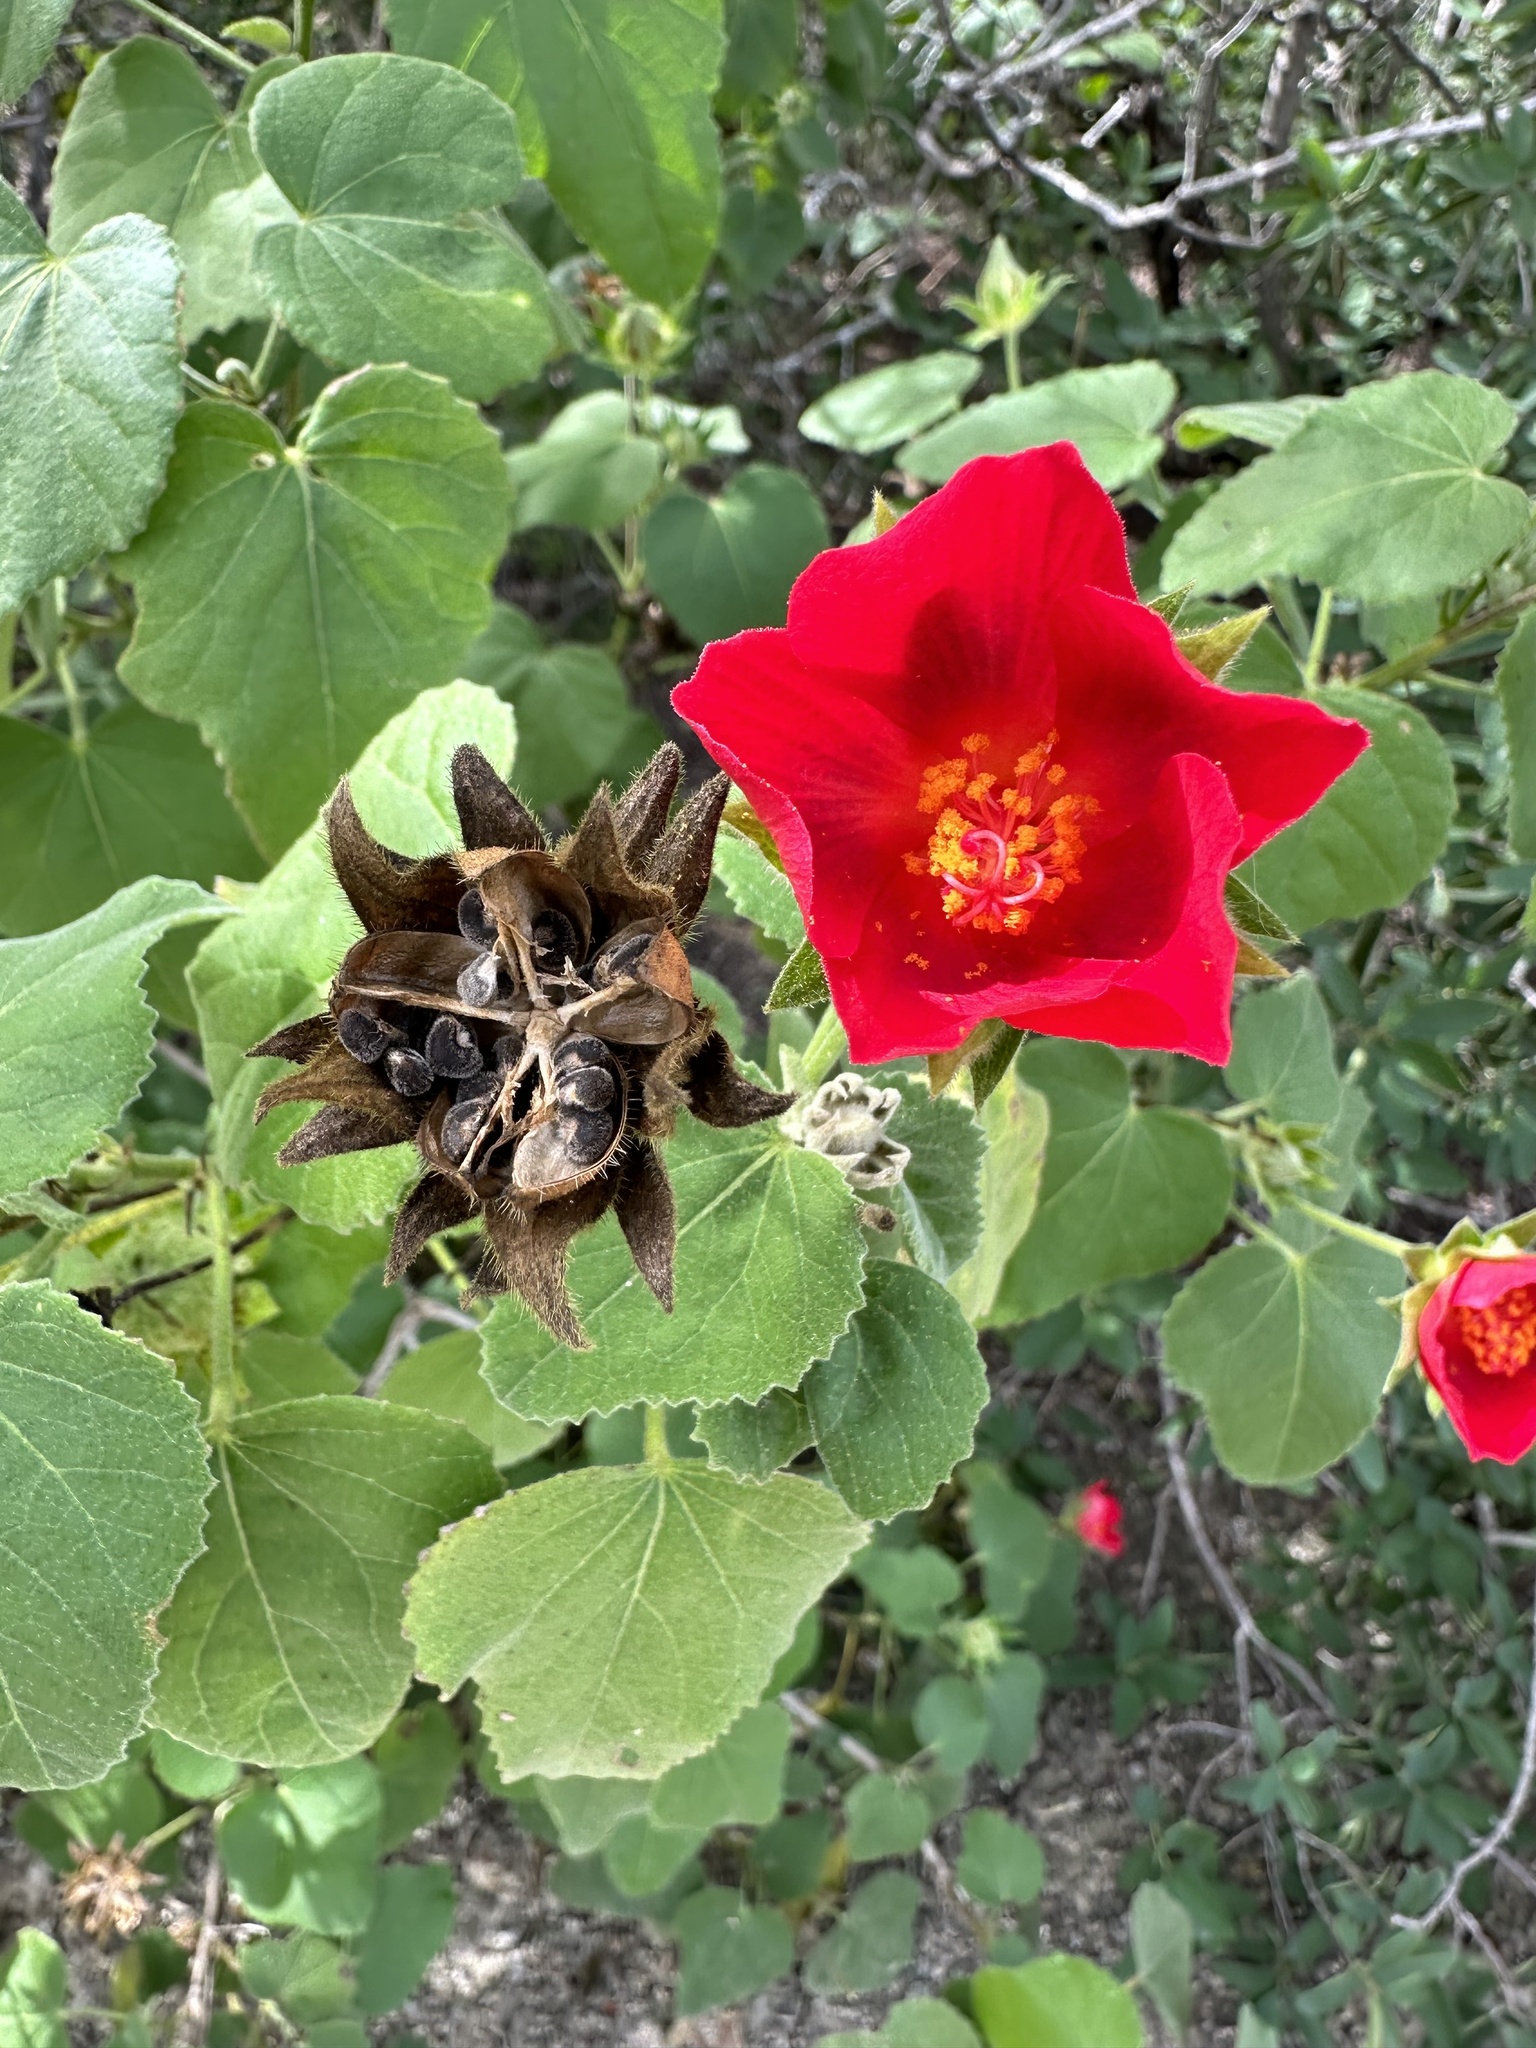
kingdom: Plantae
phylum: Tracheophyta
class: Magnoliopsida
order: Malvales
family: Malvaceae
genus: Hibiscus
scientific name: Hibiscus martianus
